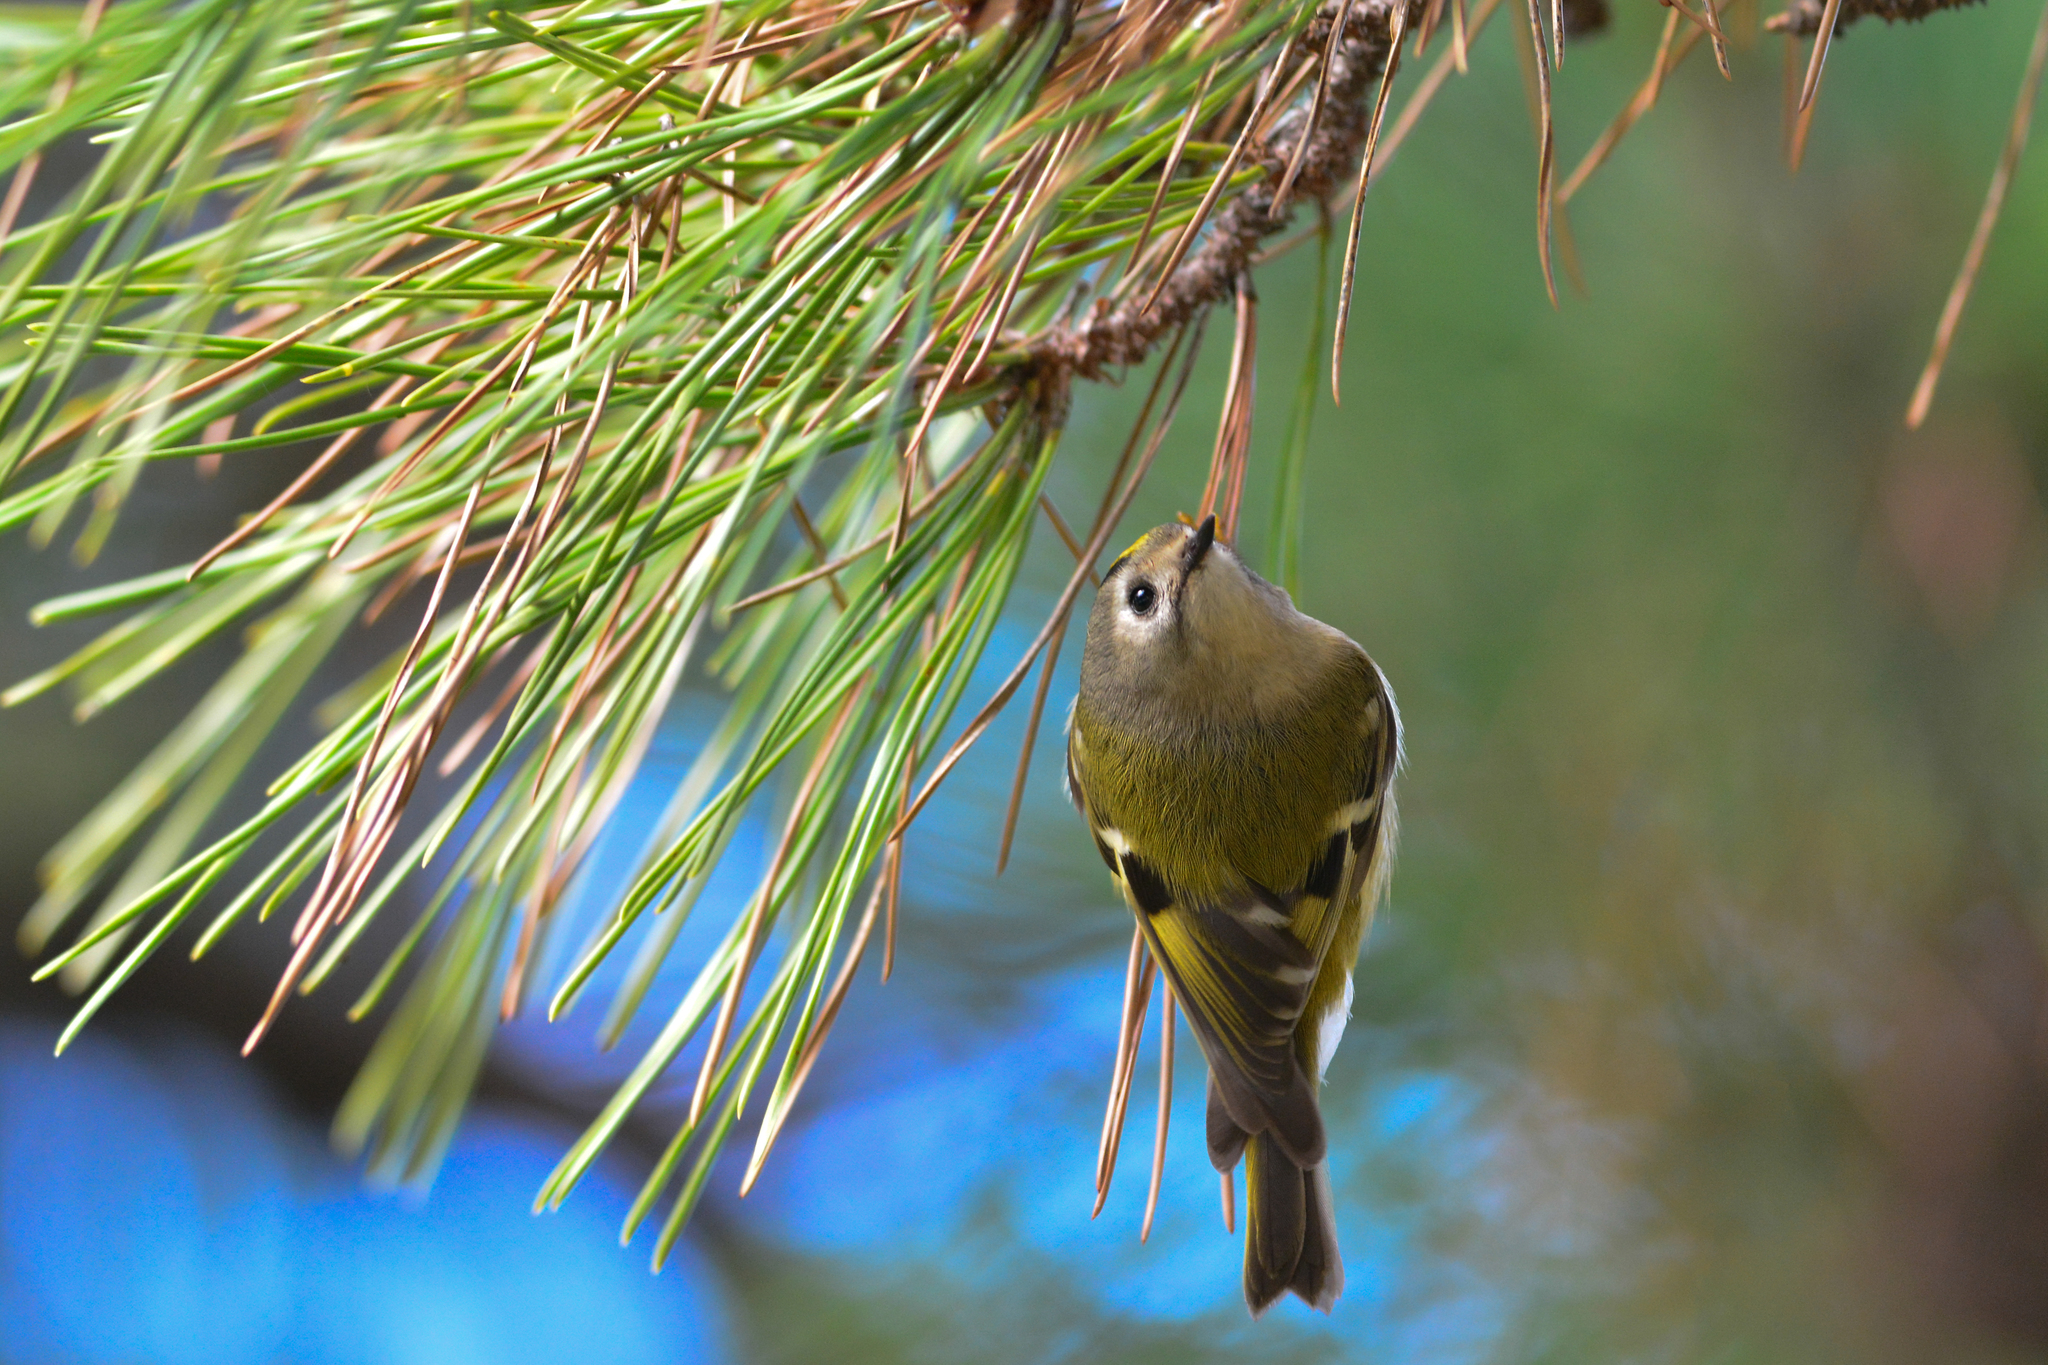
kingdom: Animalia
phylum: Chordata
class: Aves
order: Passeriformes
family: Regulidae
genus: Regulus
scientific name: Regulus regulus
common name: Goldcrest
